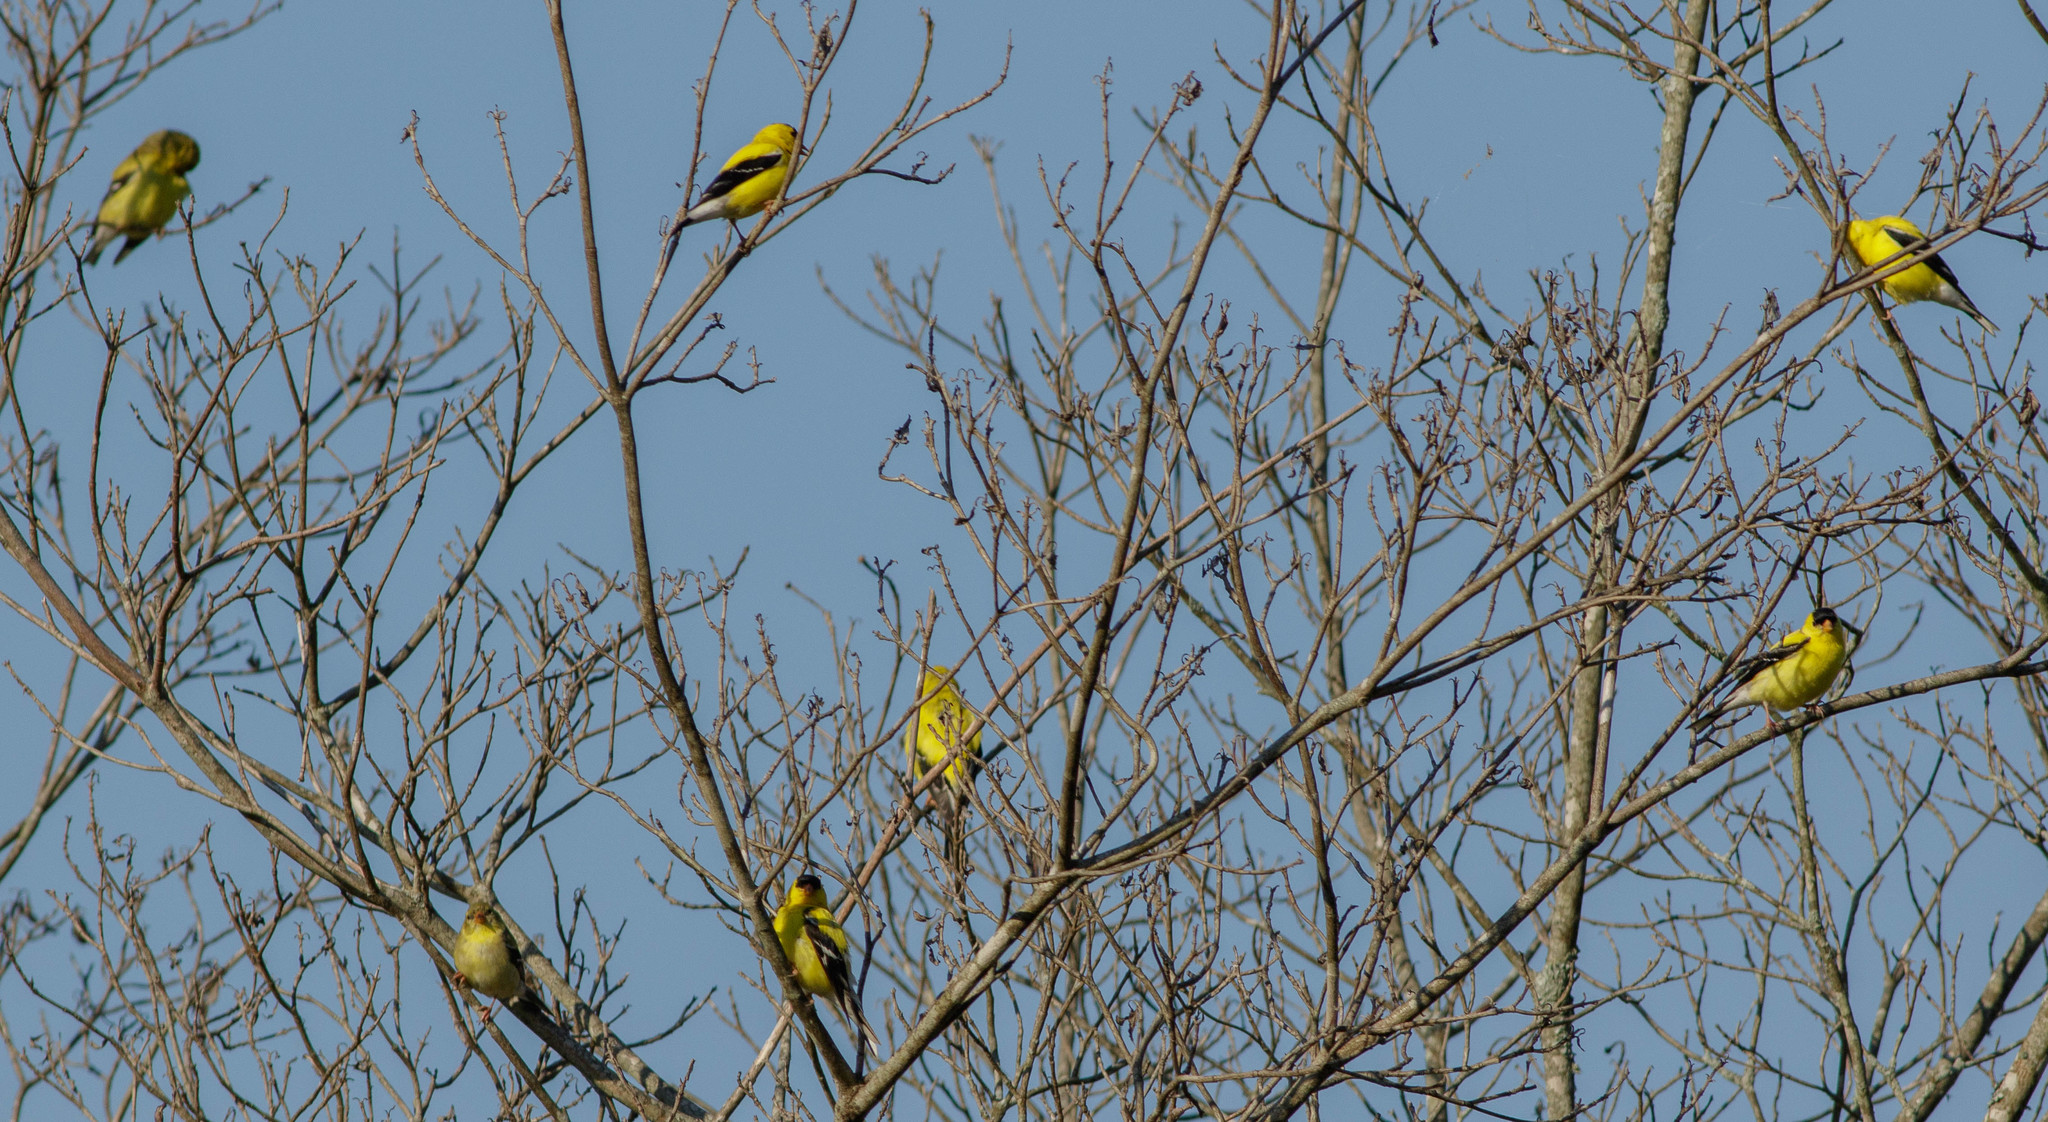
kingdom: Animalia
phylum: Chordata
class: Aves
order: Passeriformes
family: Fringillidae
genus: Spinus
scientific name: Spinus tristis
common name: American goldfinch
